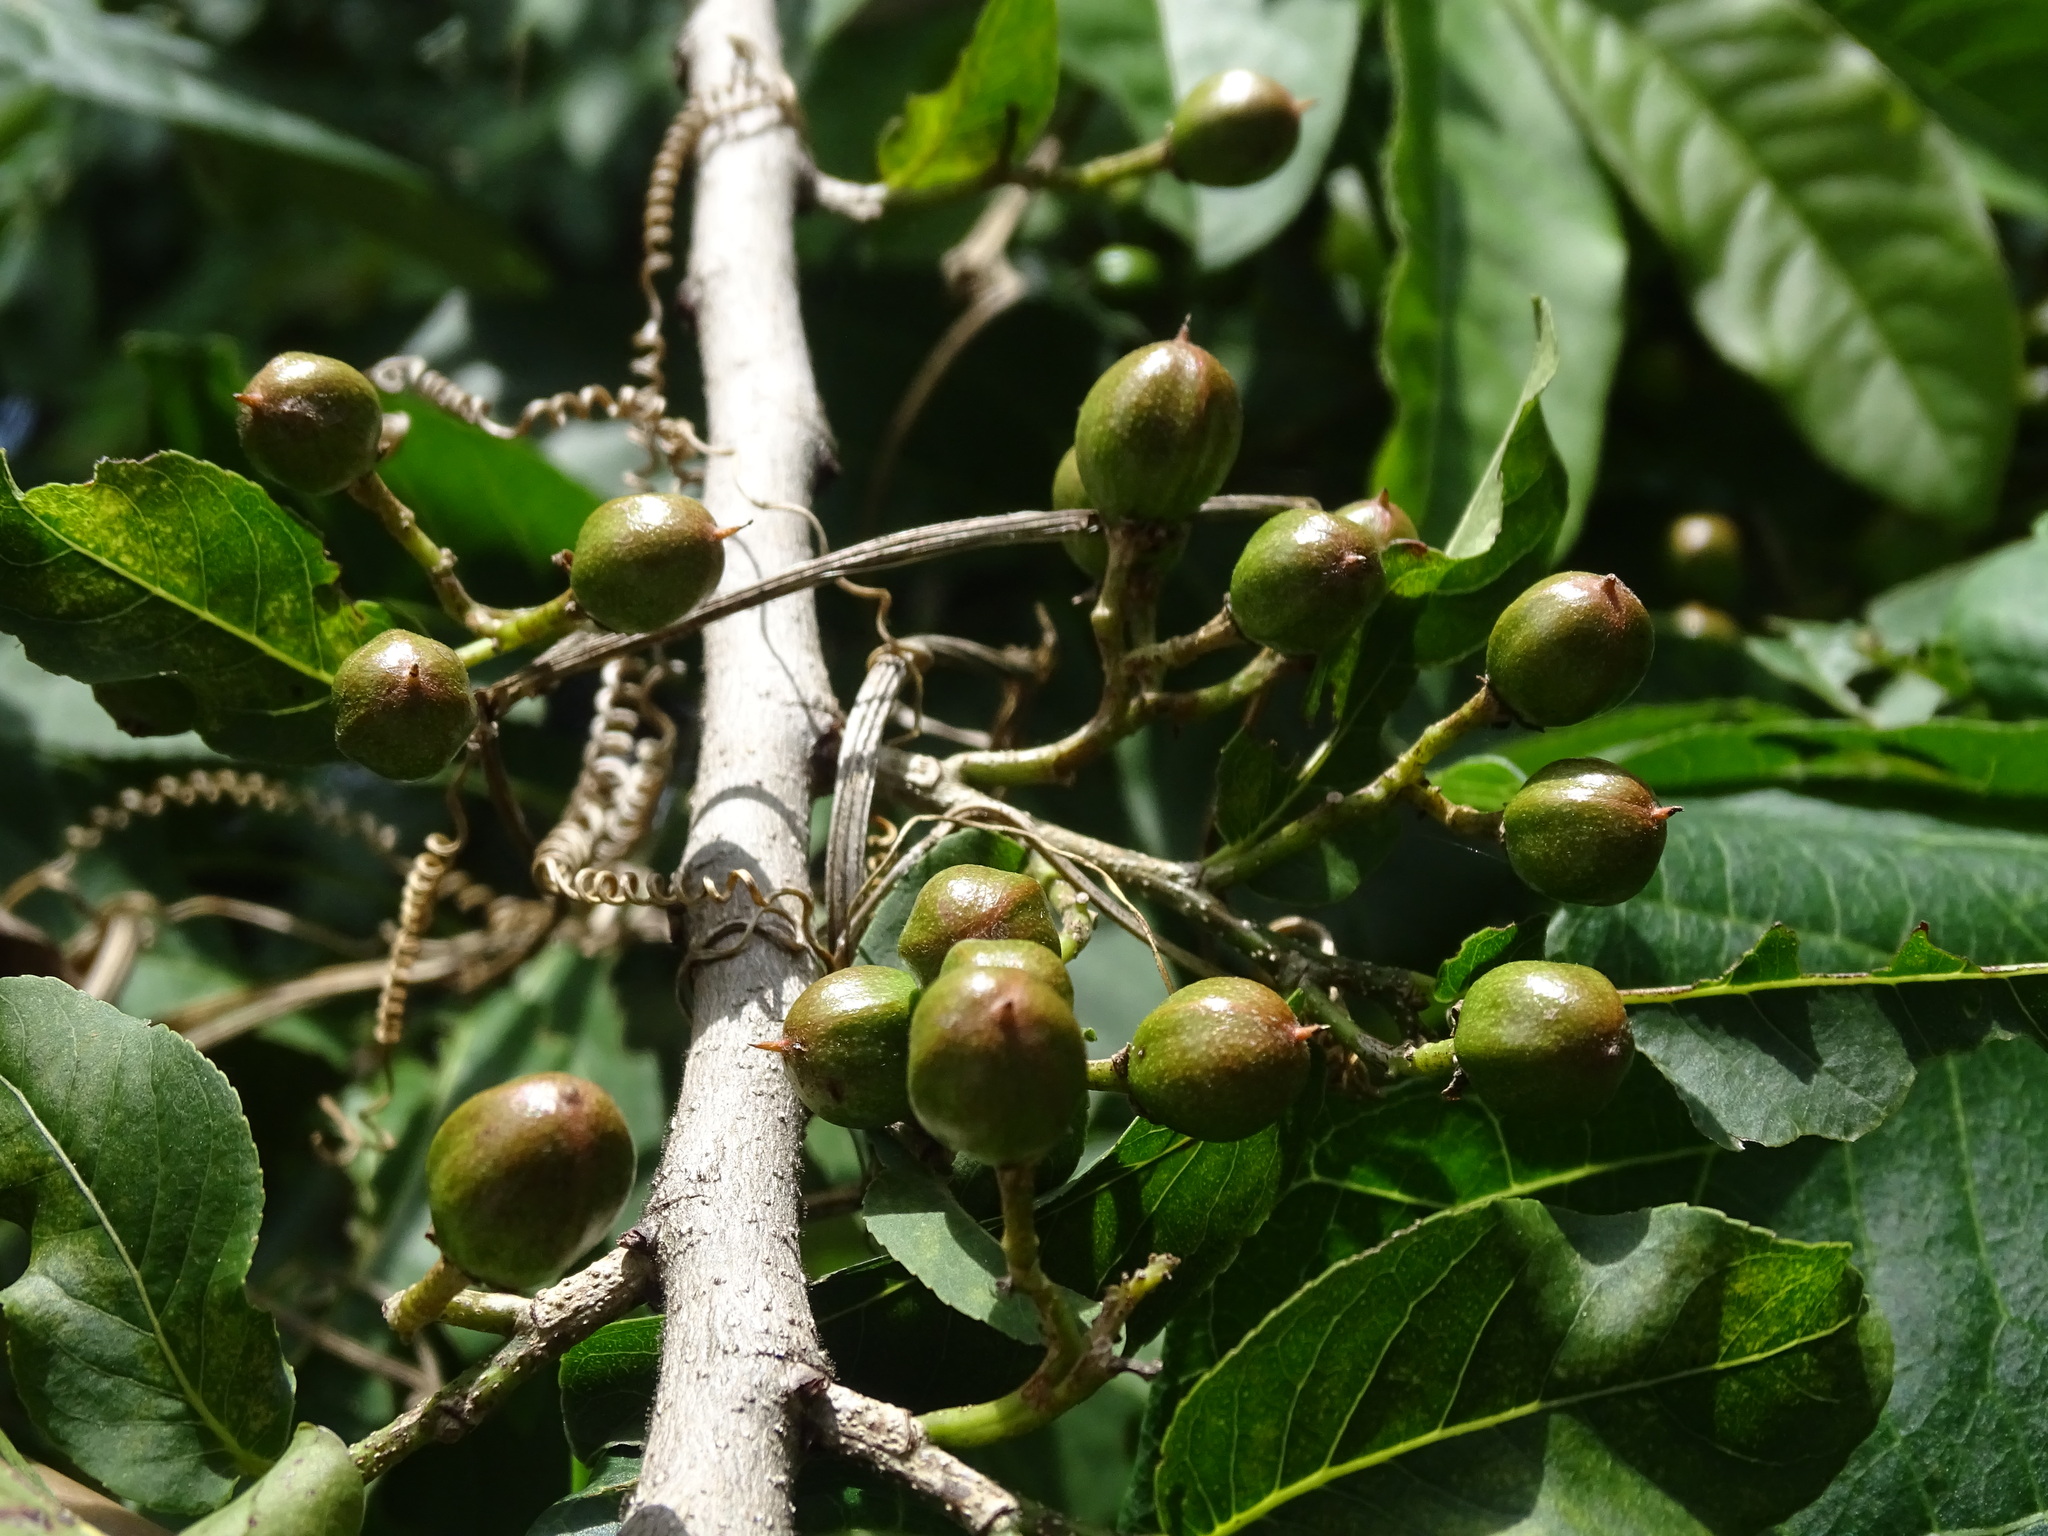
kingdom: Plantae
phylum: Tracheophyta
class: Magnoliopsida
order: Malpighiales
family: Salicaceae
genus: Casearia
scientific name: Casearia corymbosa
